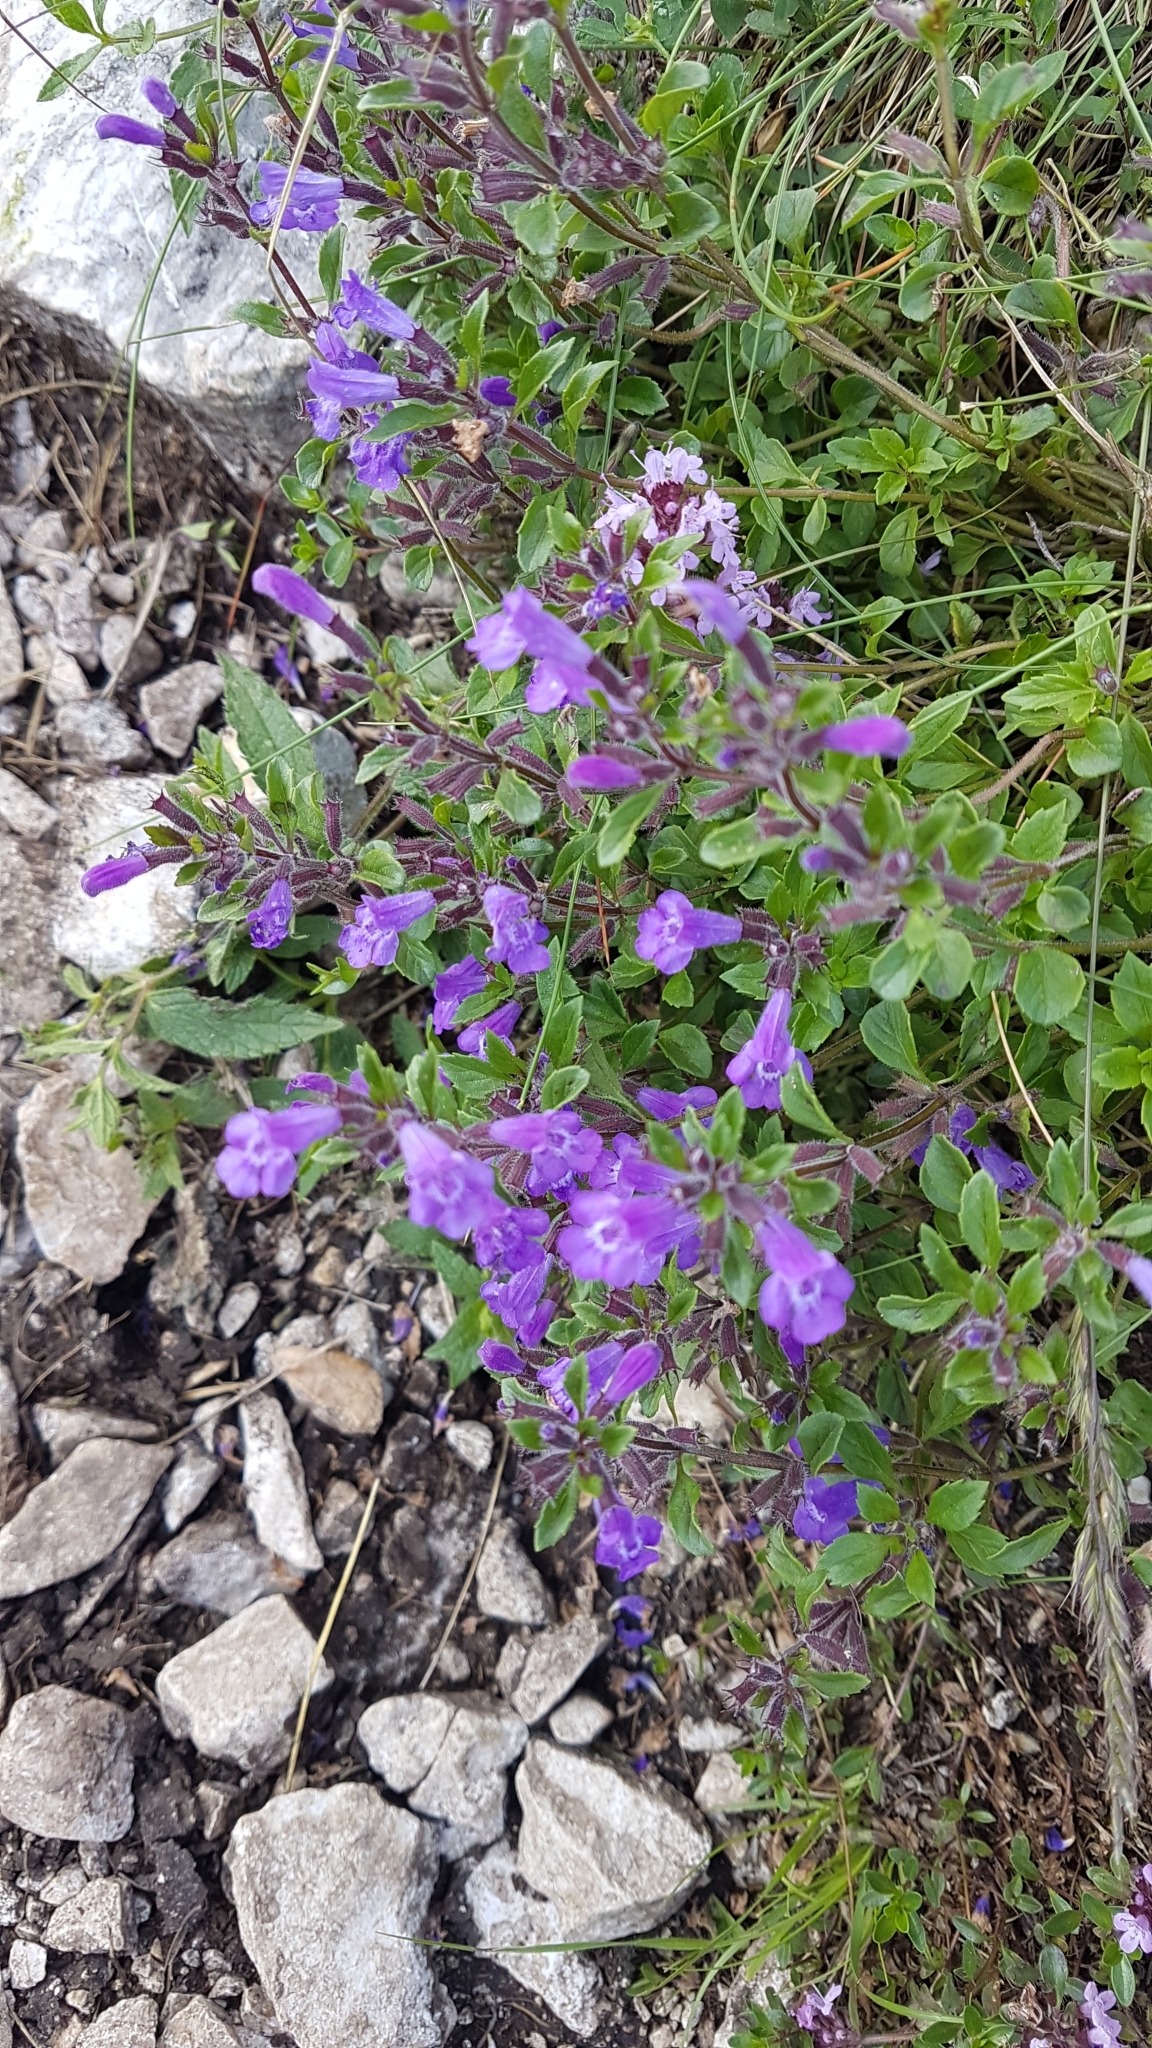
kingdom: Plantae
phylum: Tracheophyta
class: Magnoliopsida
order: Lamiales
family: Lamiaceae
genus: Clinopodium
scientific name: Clinopodium alpinum
